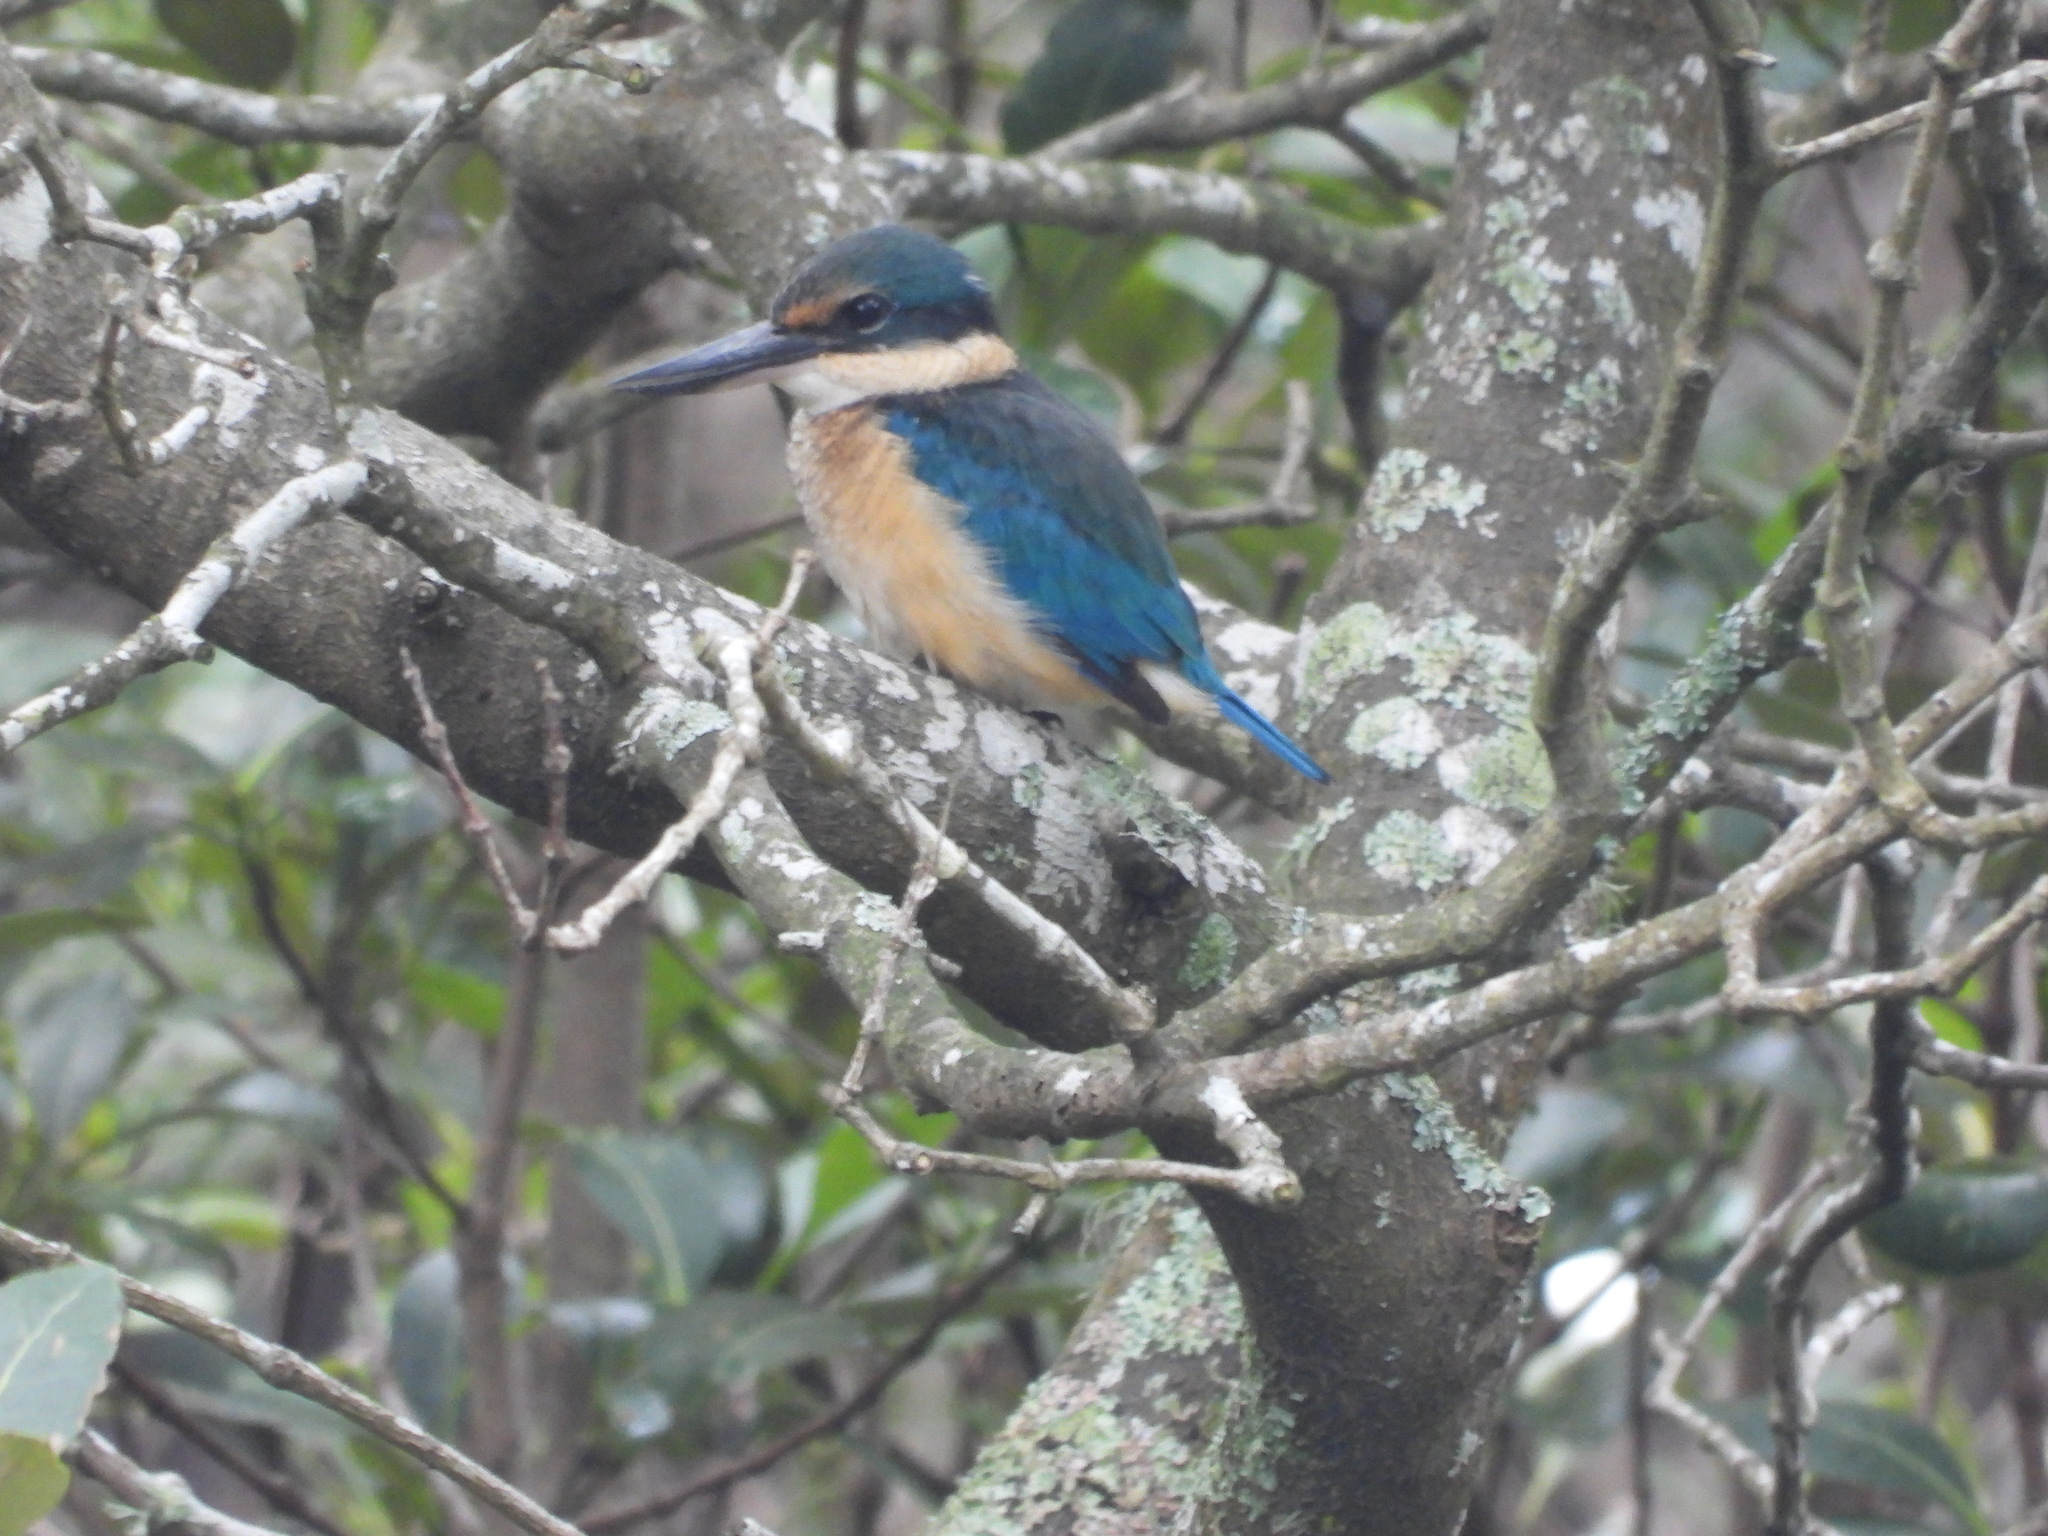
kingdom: Animalia
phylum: Chordata
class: Aves
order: Coraciiformes
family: Alcedinidae
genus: Todiramphus
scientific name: Todiramphus sanctus
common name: Sacred kingfisher
